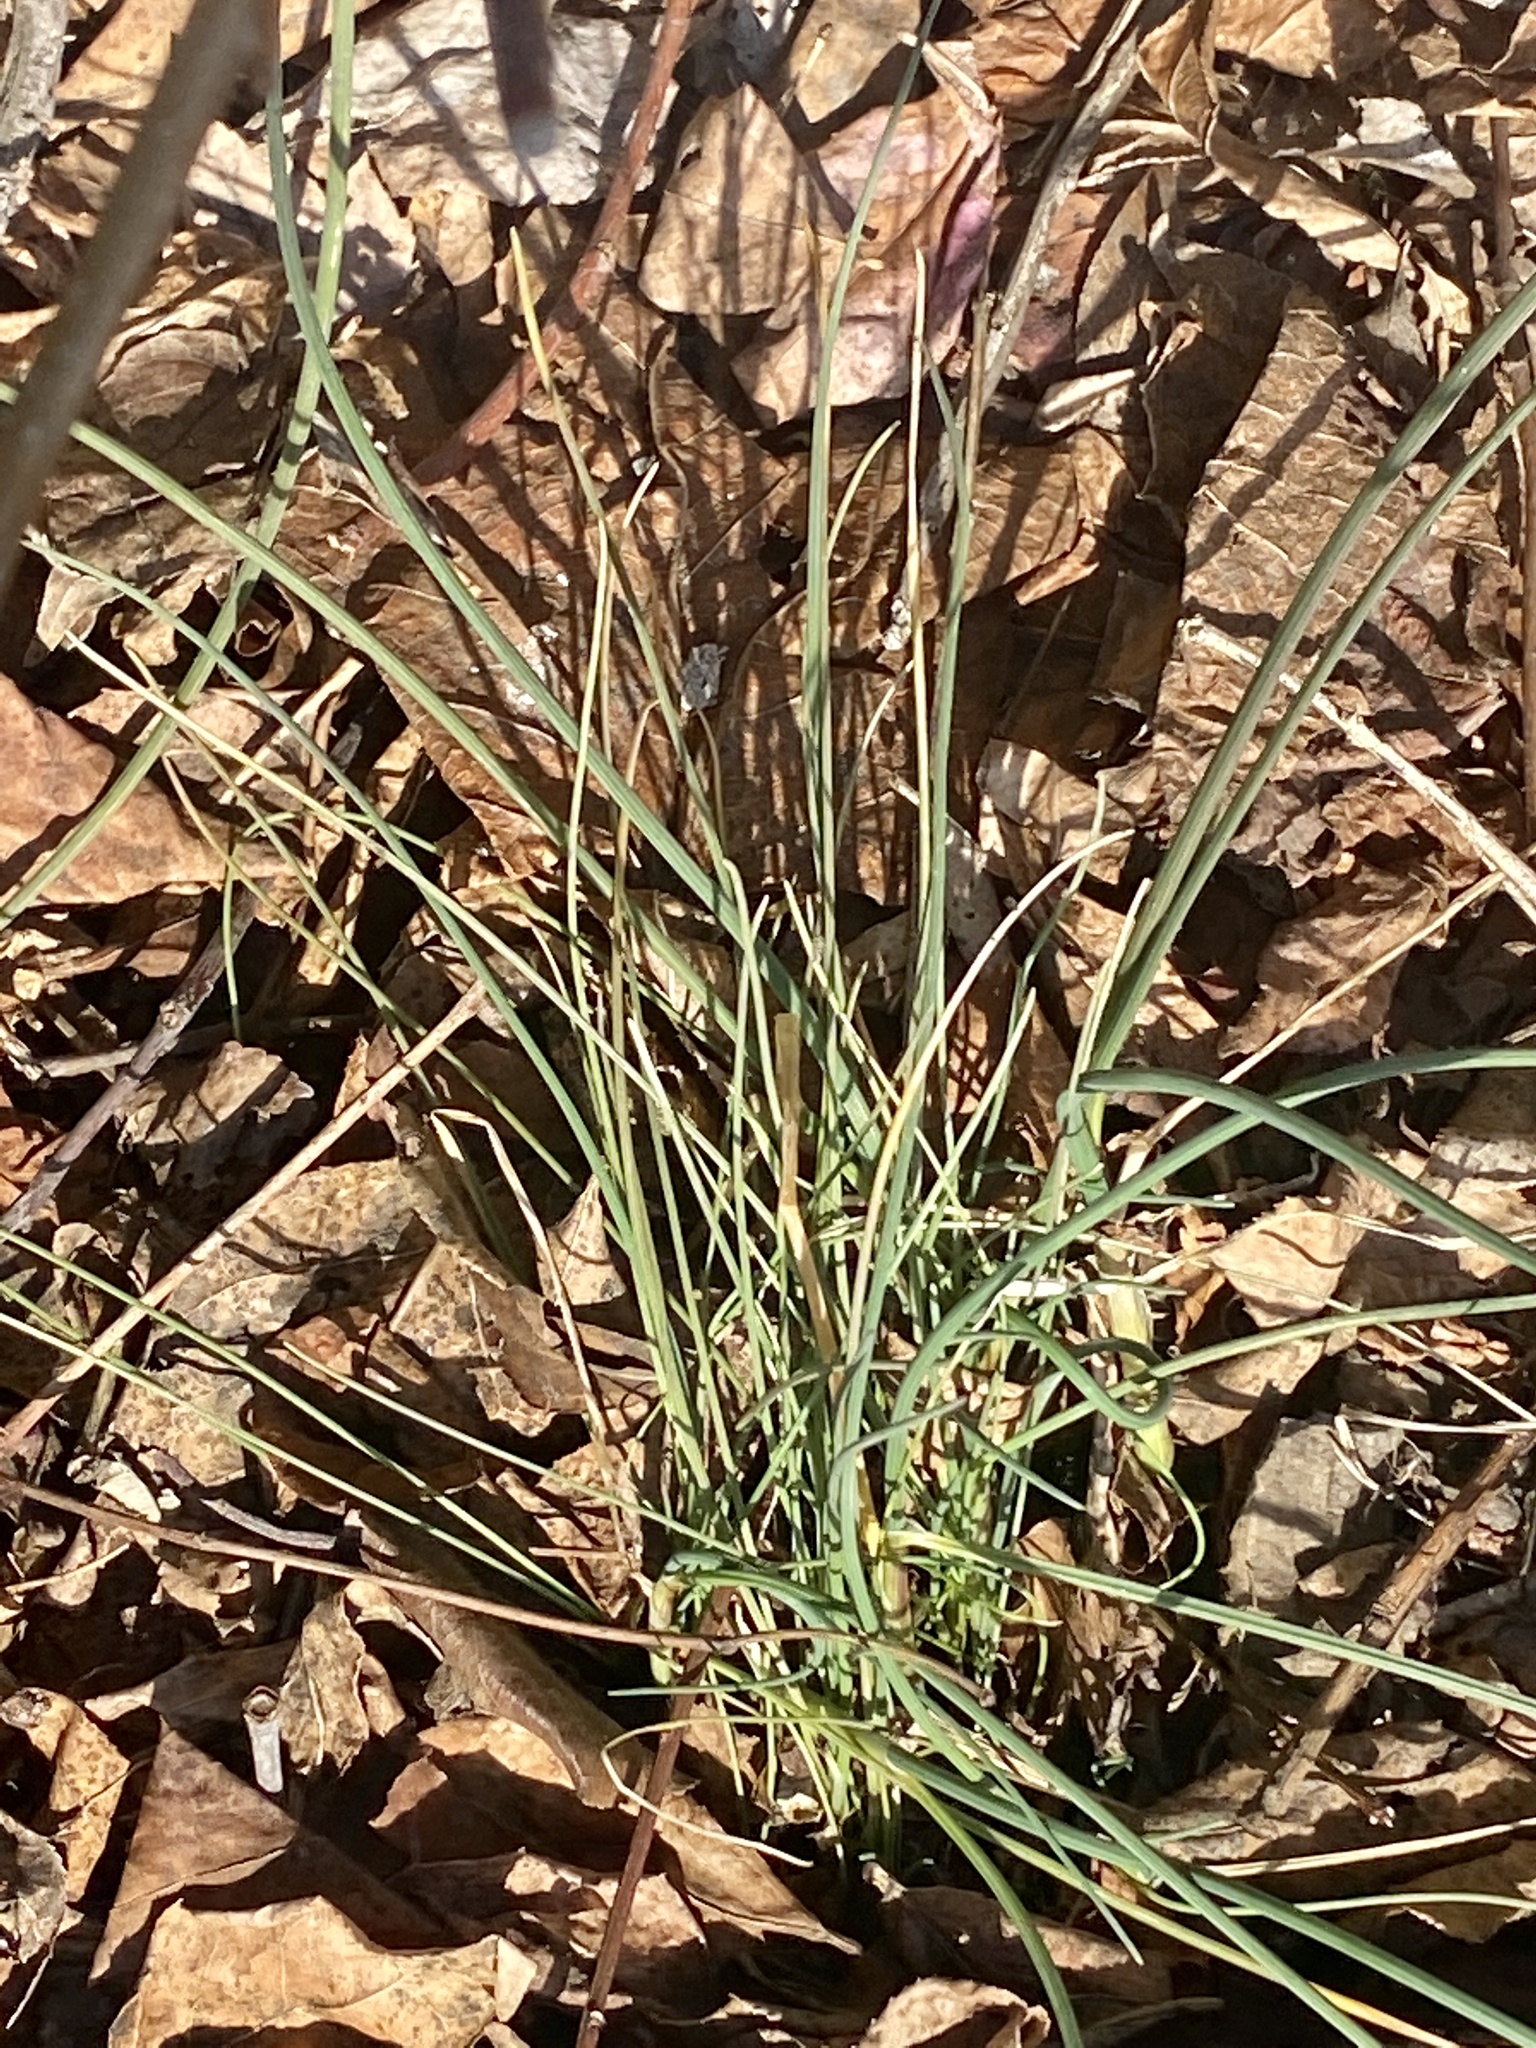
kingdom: Plantae
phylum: Tracheophyta
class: Liliopsida
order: Asparagales
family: Amaryllidaceae
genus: Allium
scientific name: Allium vineale
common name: Crow garlic
